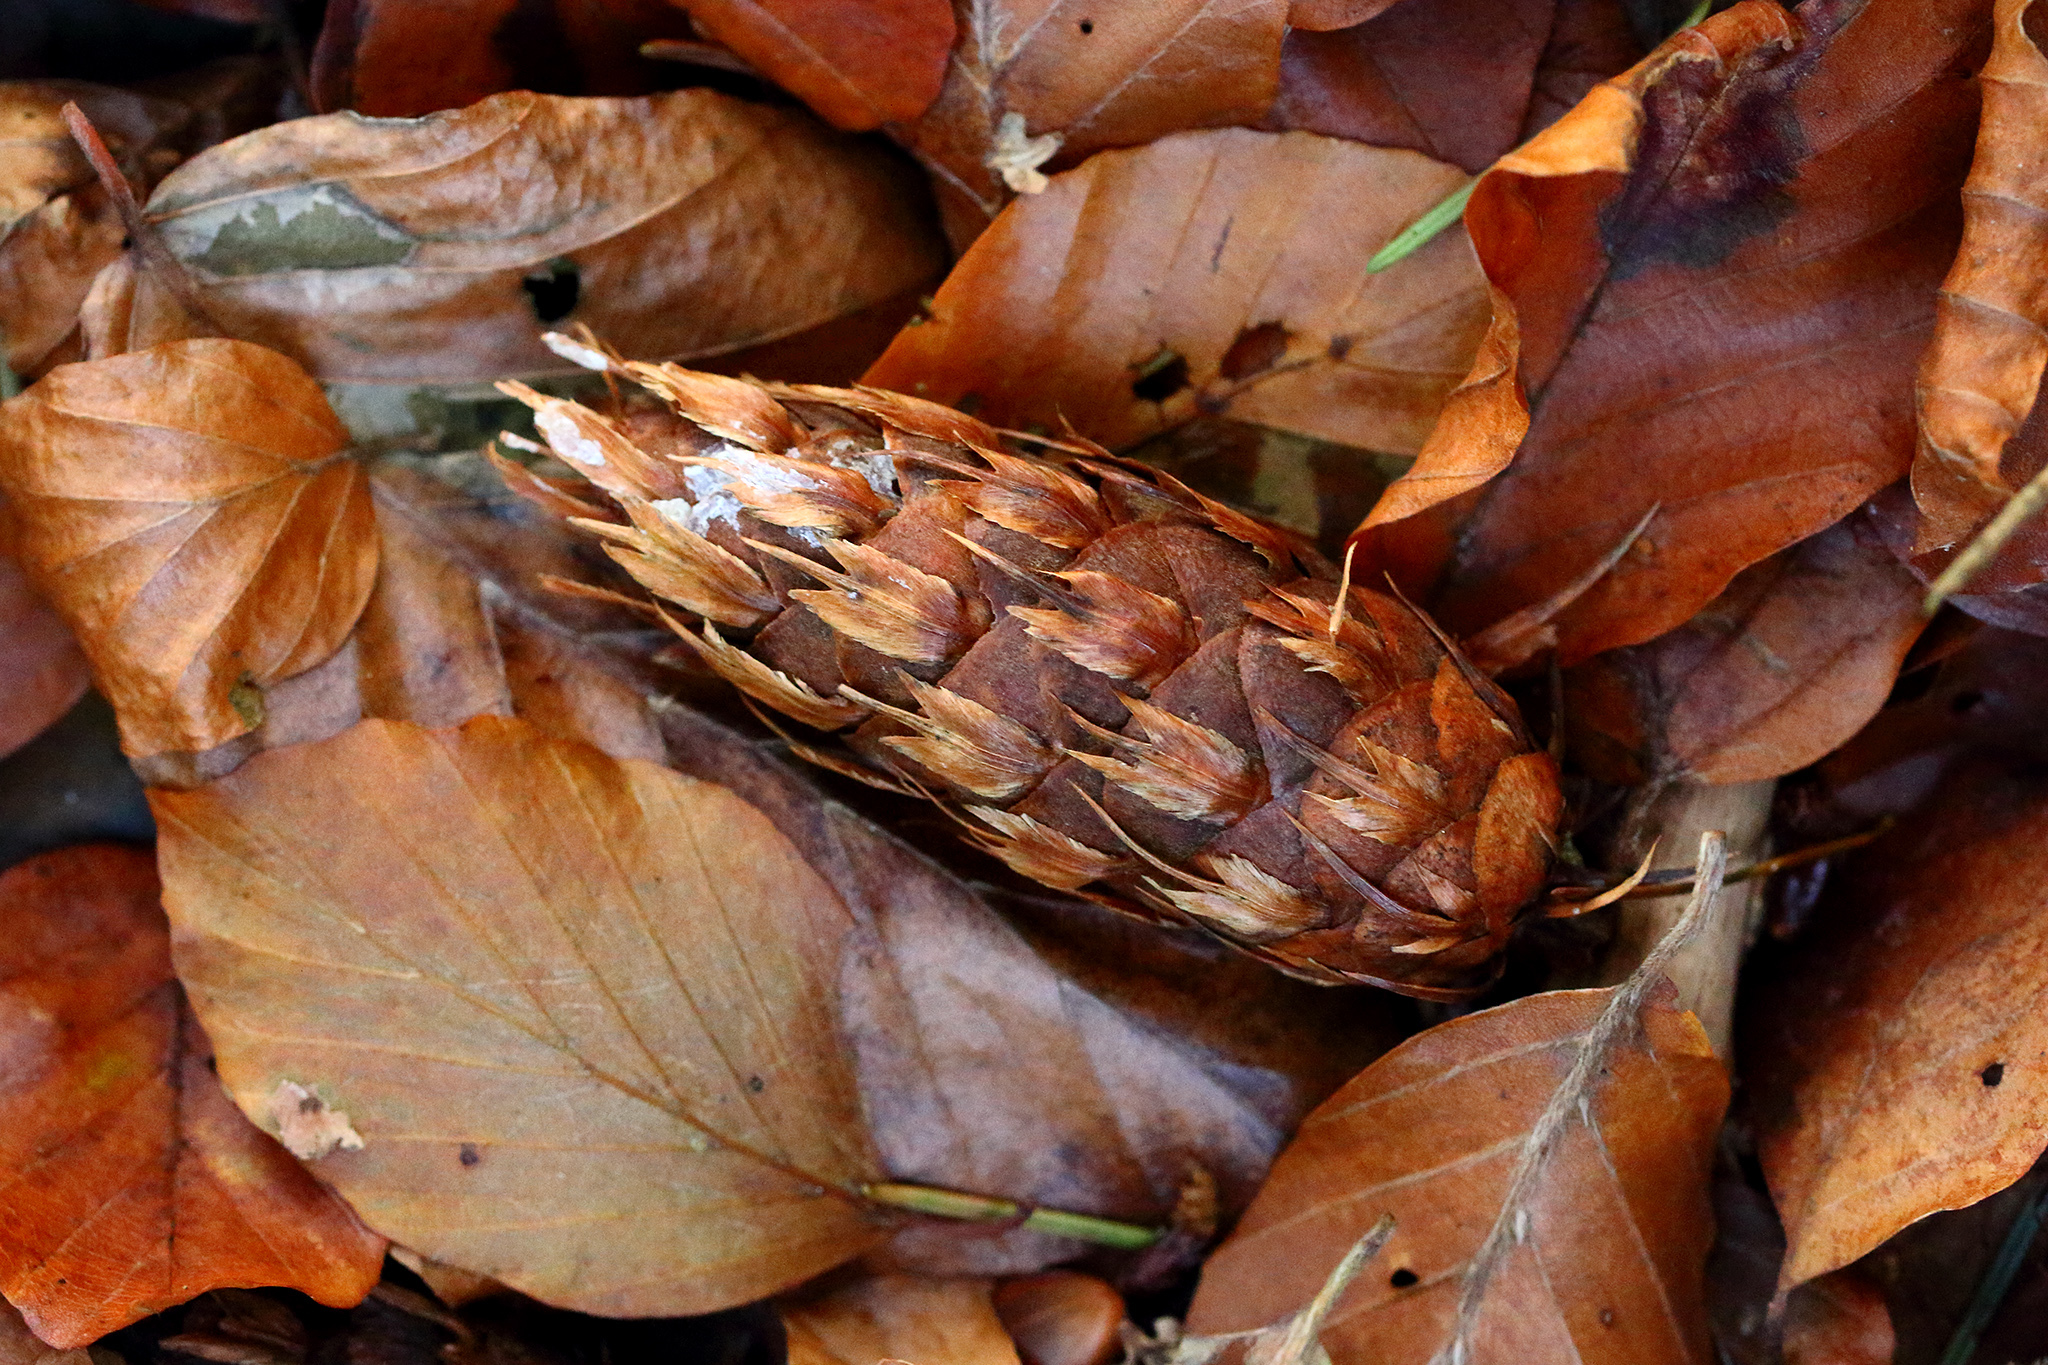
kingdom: Plantae
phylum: Tracheophyta
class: Pinopsida
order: Pinales
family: Pinaceae
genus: Pseudotsuga
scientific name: Pseudotsuga menziesii
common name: Douglas fir
